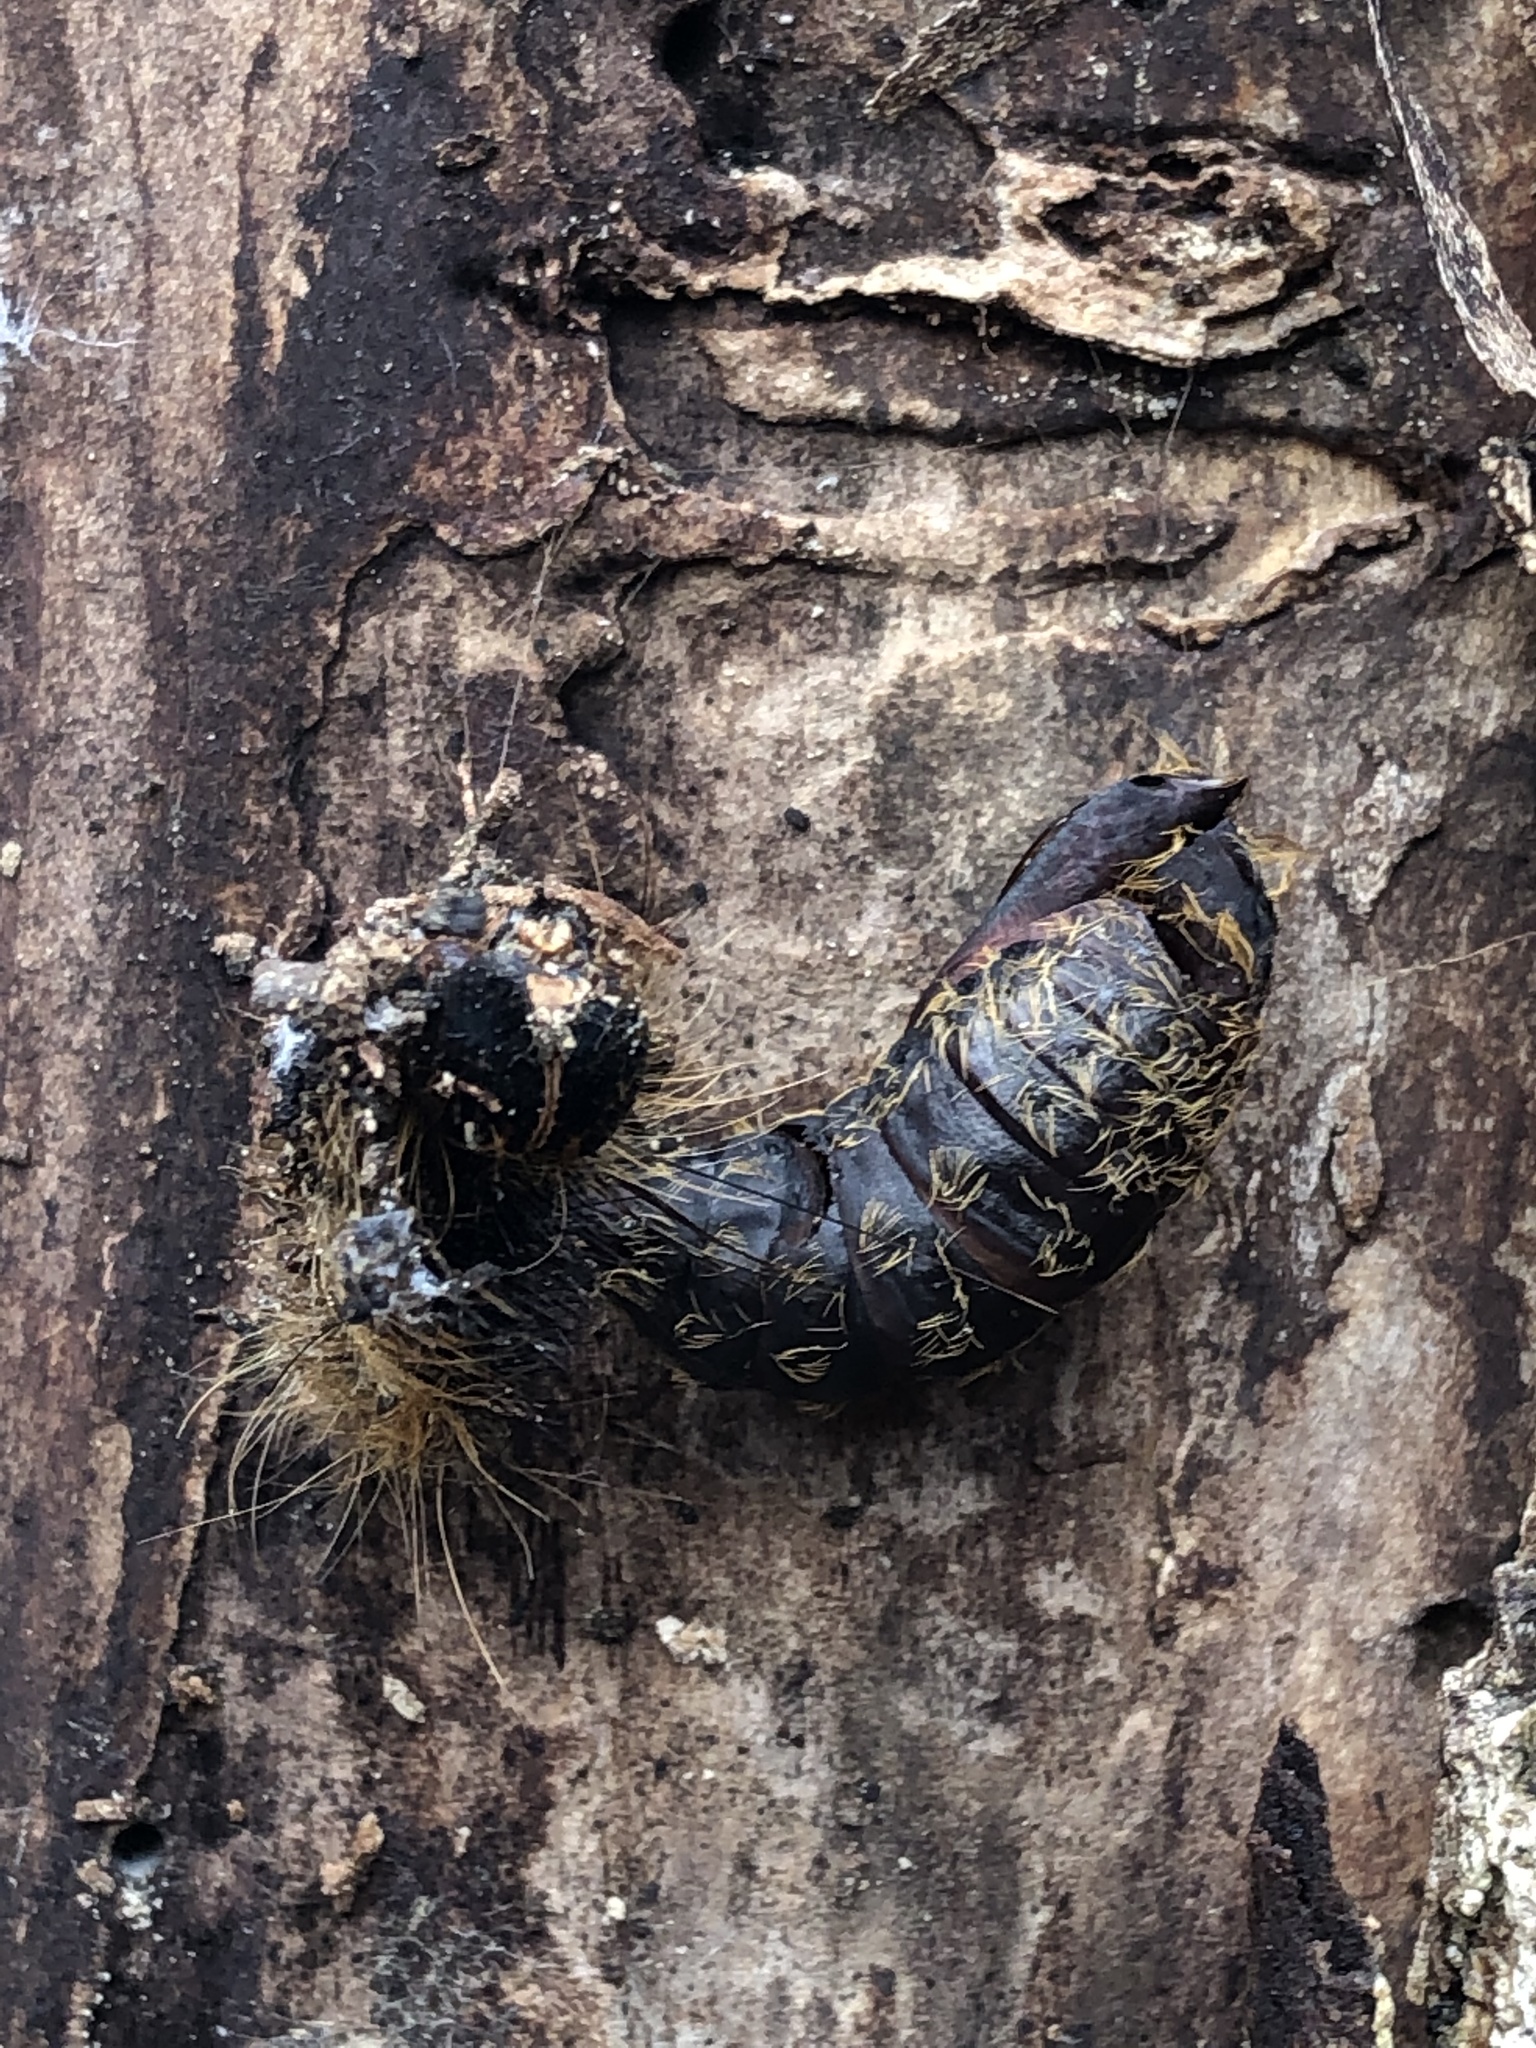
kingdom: Animalia
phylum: Arthropoda
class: Insecta
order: Lepidoptera
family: Erebidae
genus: Lymantria
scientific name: Lymantria dispar
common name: Gypsy moth
